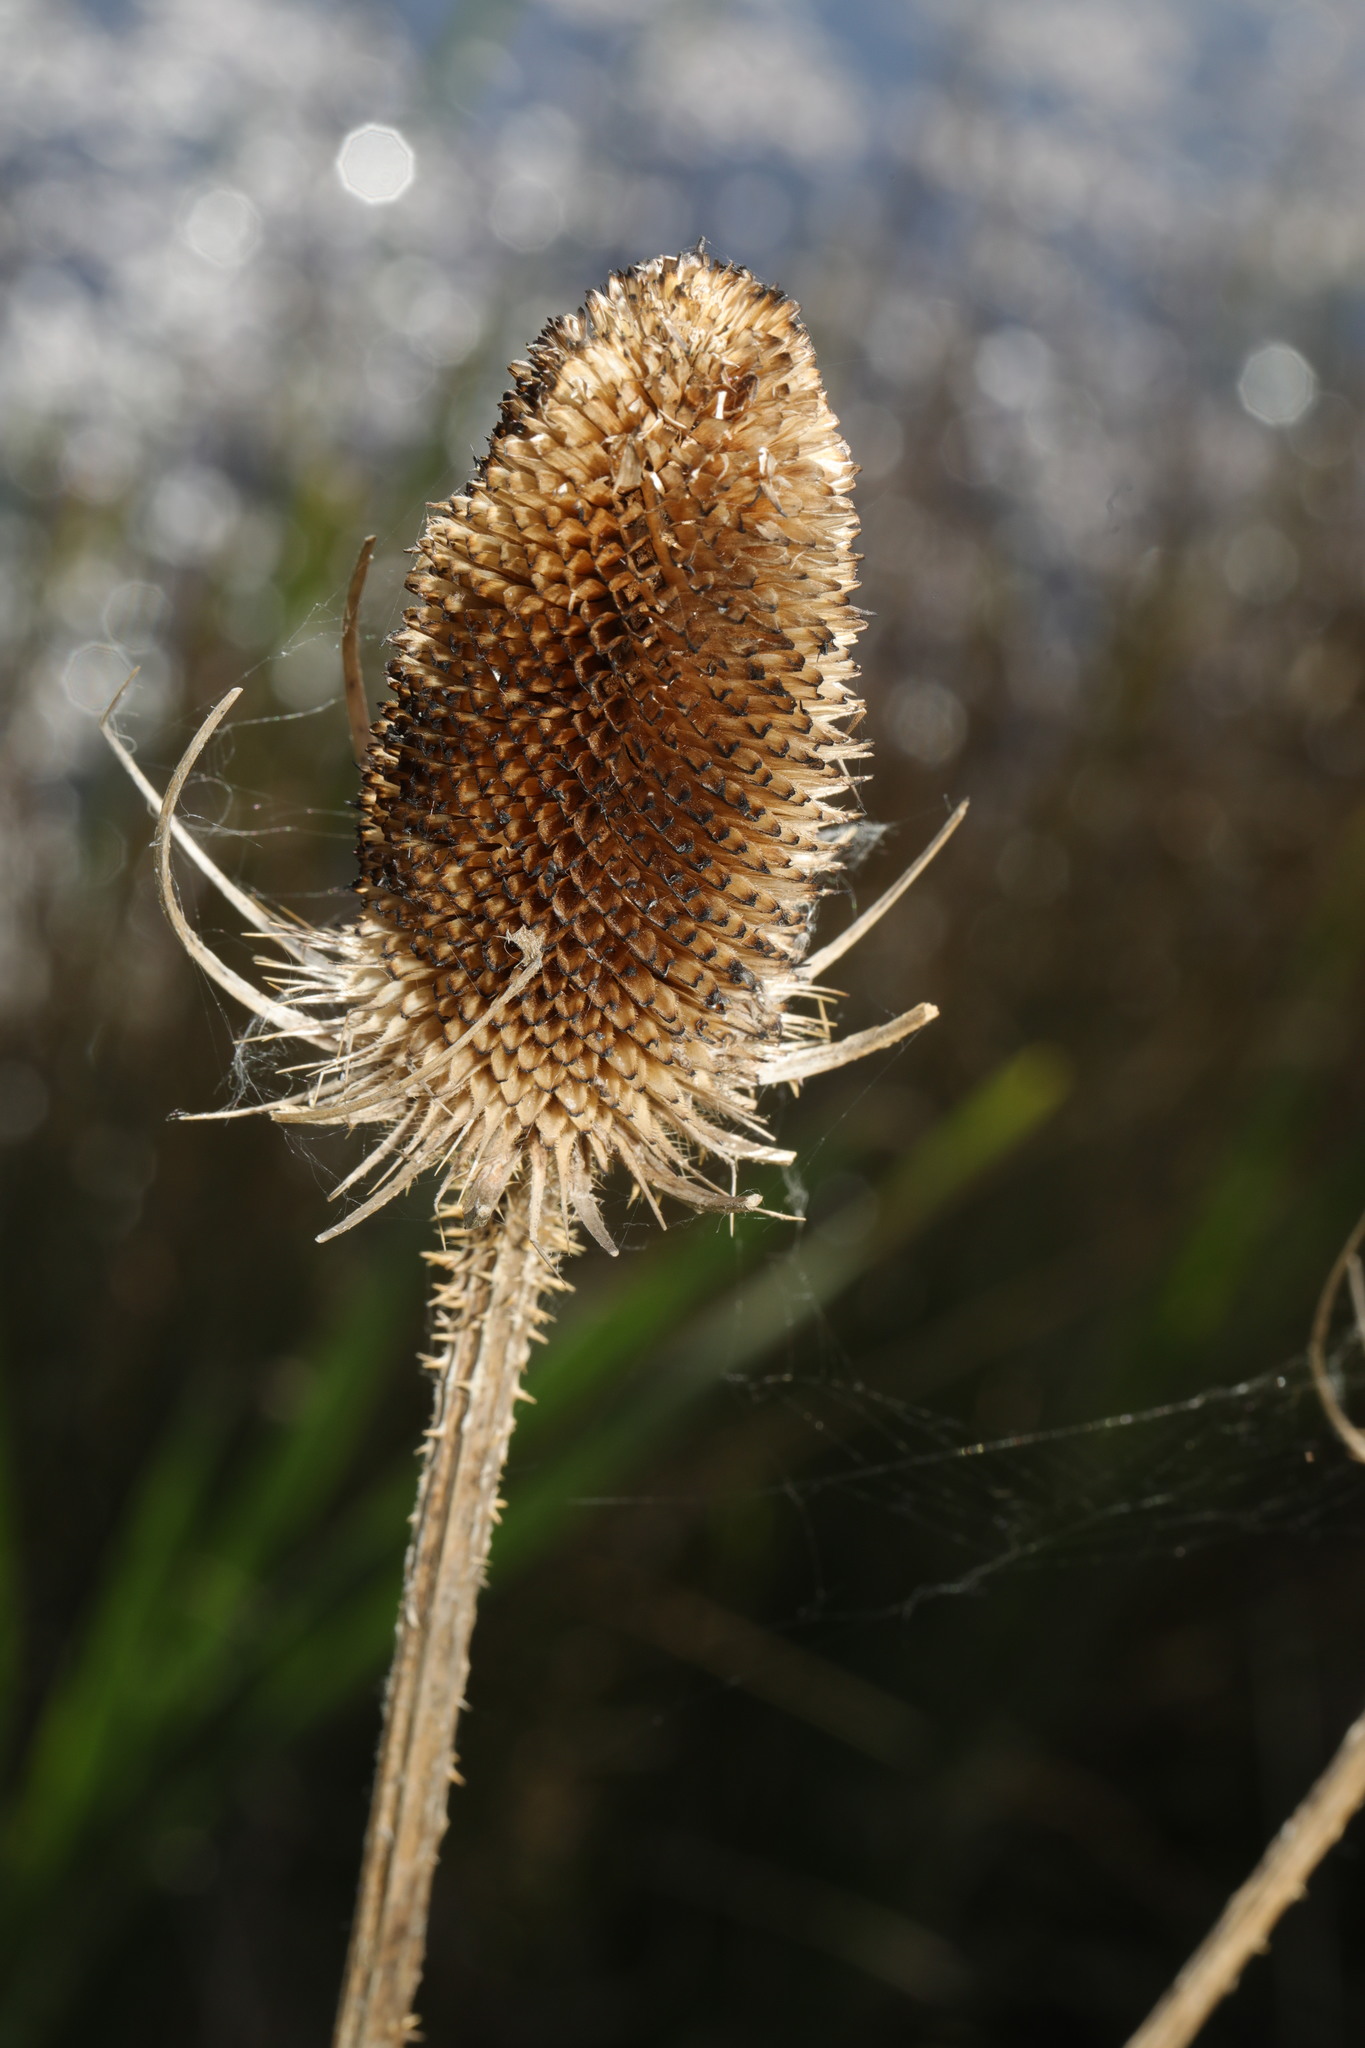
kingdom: Plantae
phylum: Tracheophyta
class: Magnoliopsida
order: Dipsacales
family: Caprifoliaceae
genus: Dipsacus
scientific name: Dipsacus fullonum
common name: Teasel
